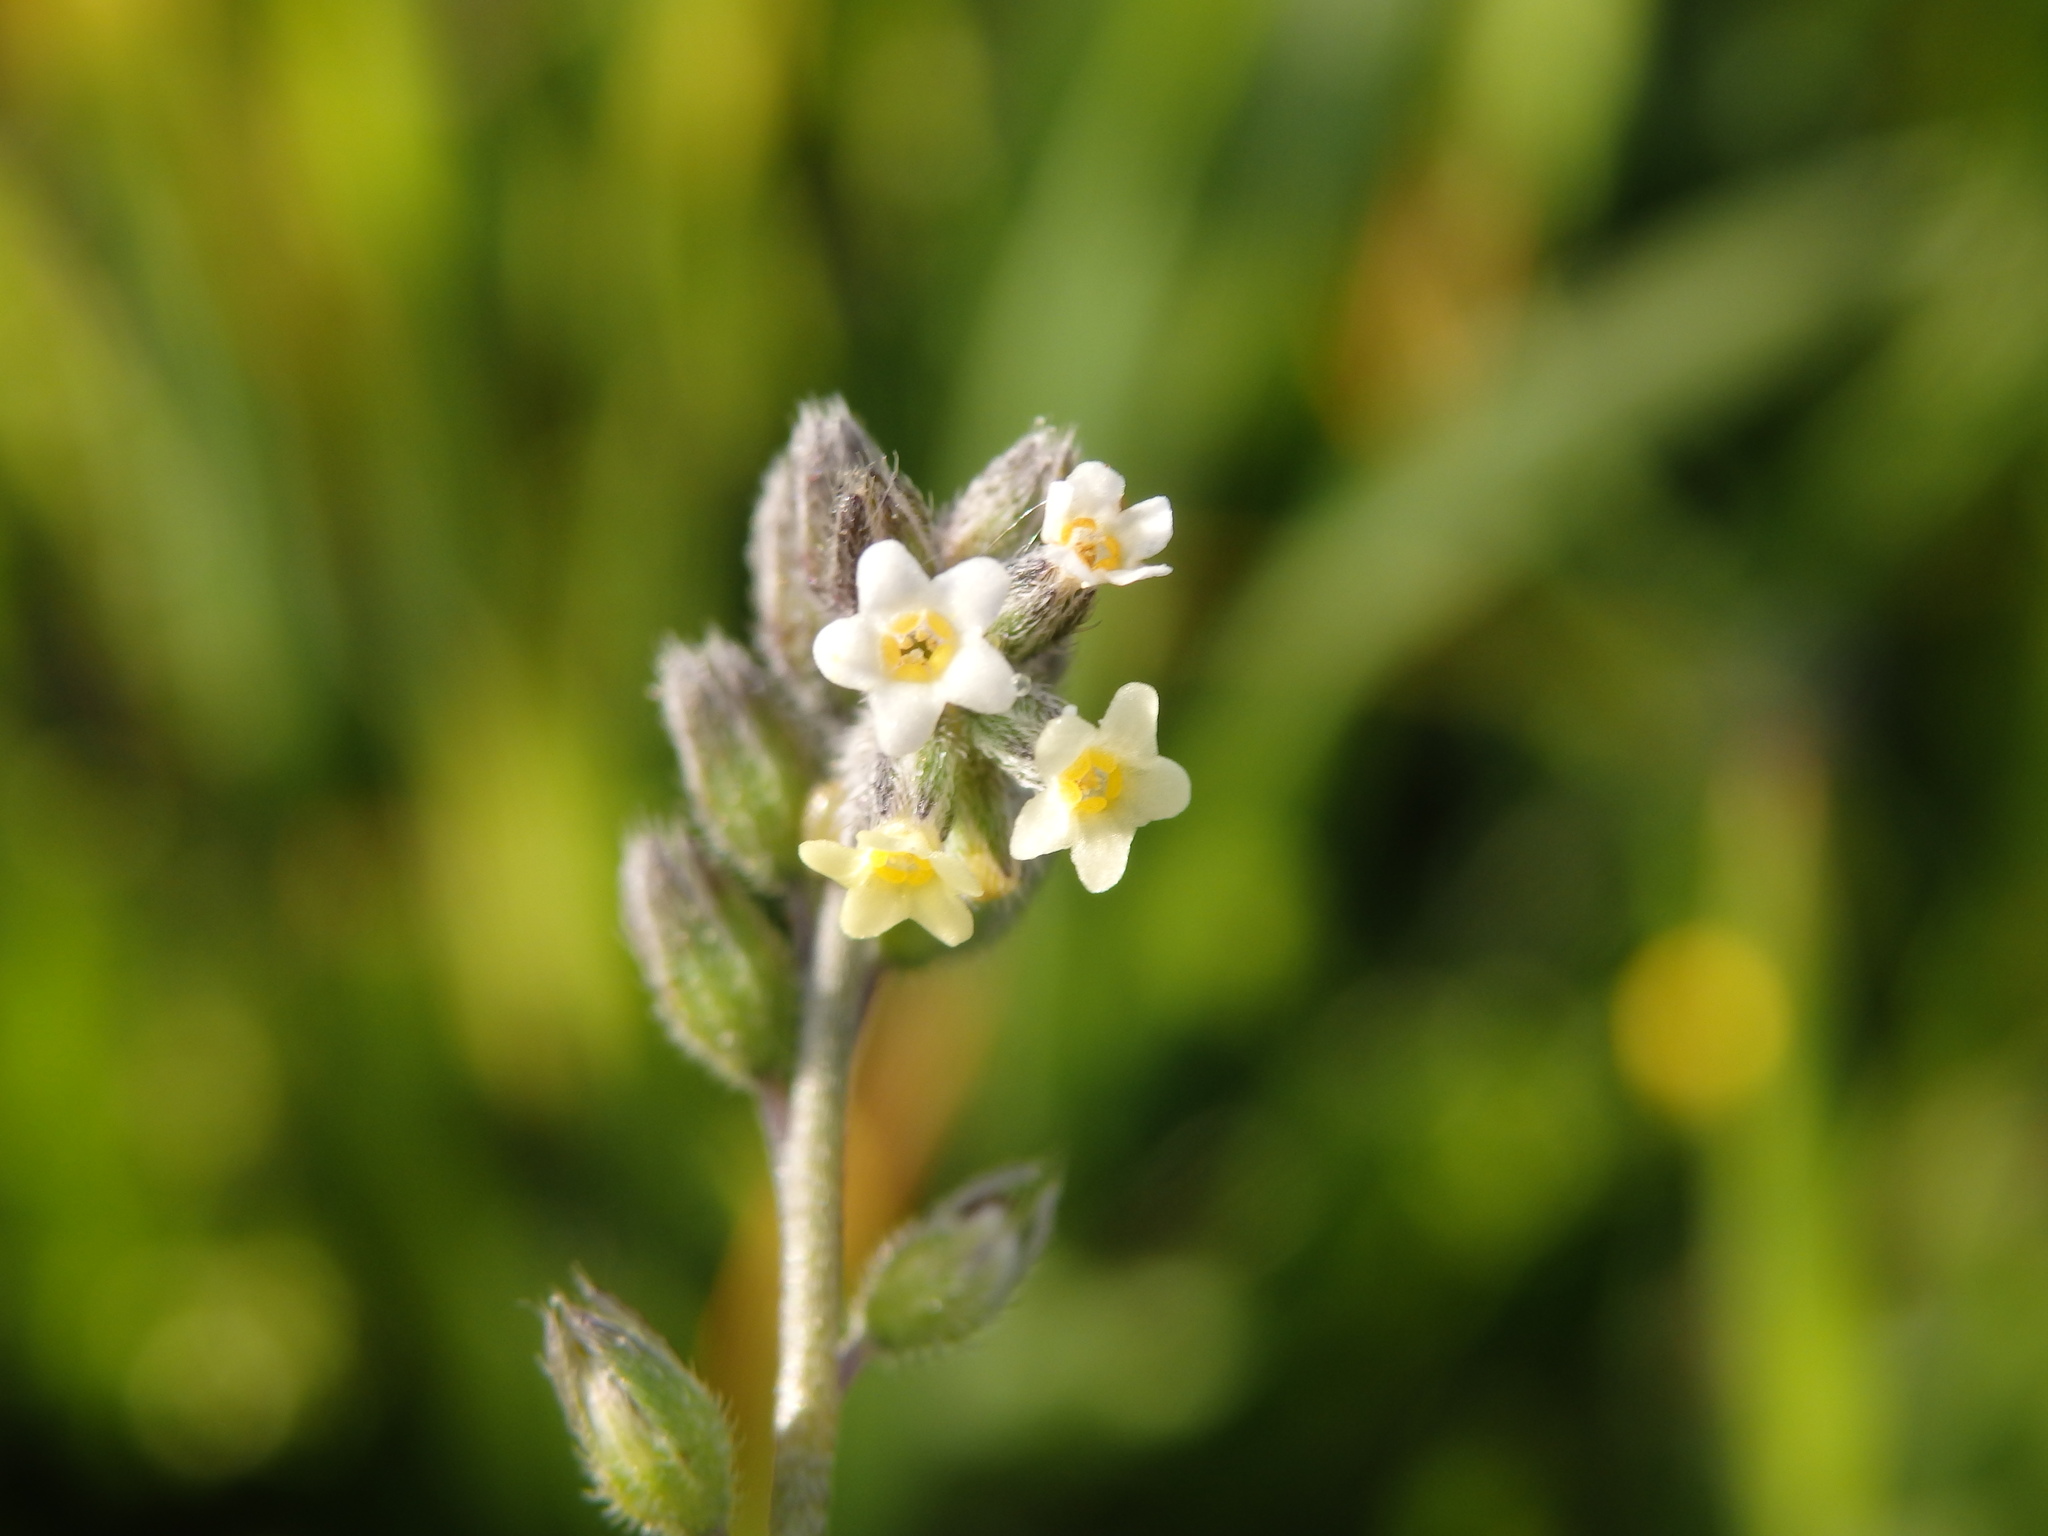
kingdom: Plantae
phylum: Tracheophyta
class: Magnoliopsida
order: Boraginales
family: Boraginaceae
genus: Myosotis
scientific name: Myosotis discolor
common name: Changing forget-me-not
